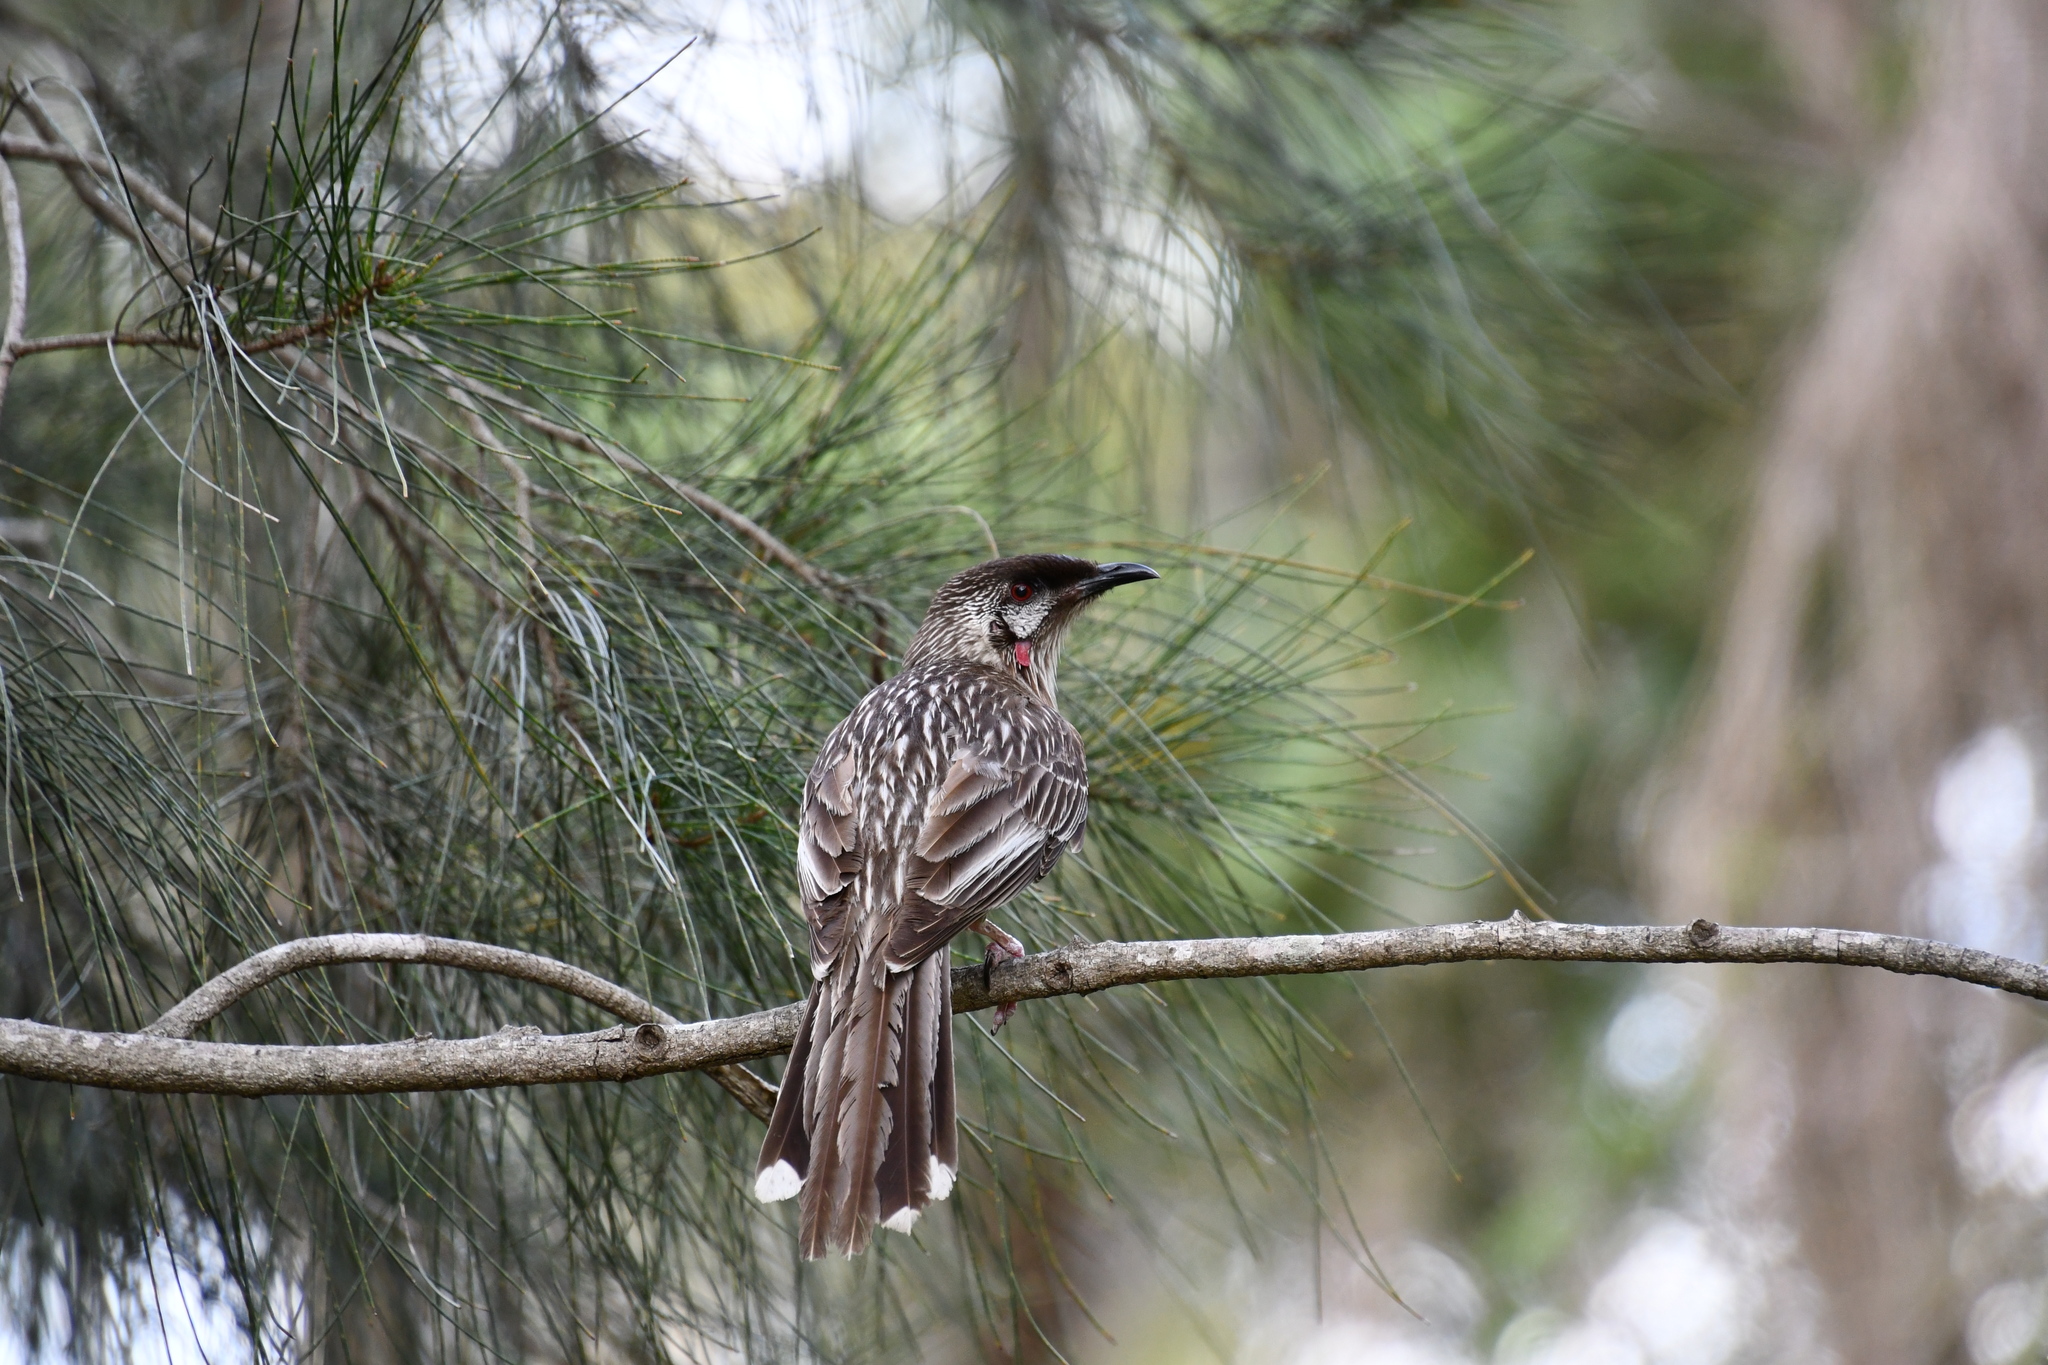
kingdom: Animalia
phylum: Chordata
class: Aves
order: Passeriformes
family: Meliphagidae
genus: Anthochaera
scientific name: Anthochaera carunculata
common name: Red wattlebird
